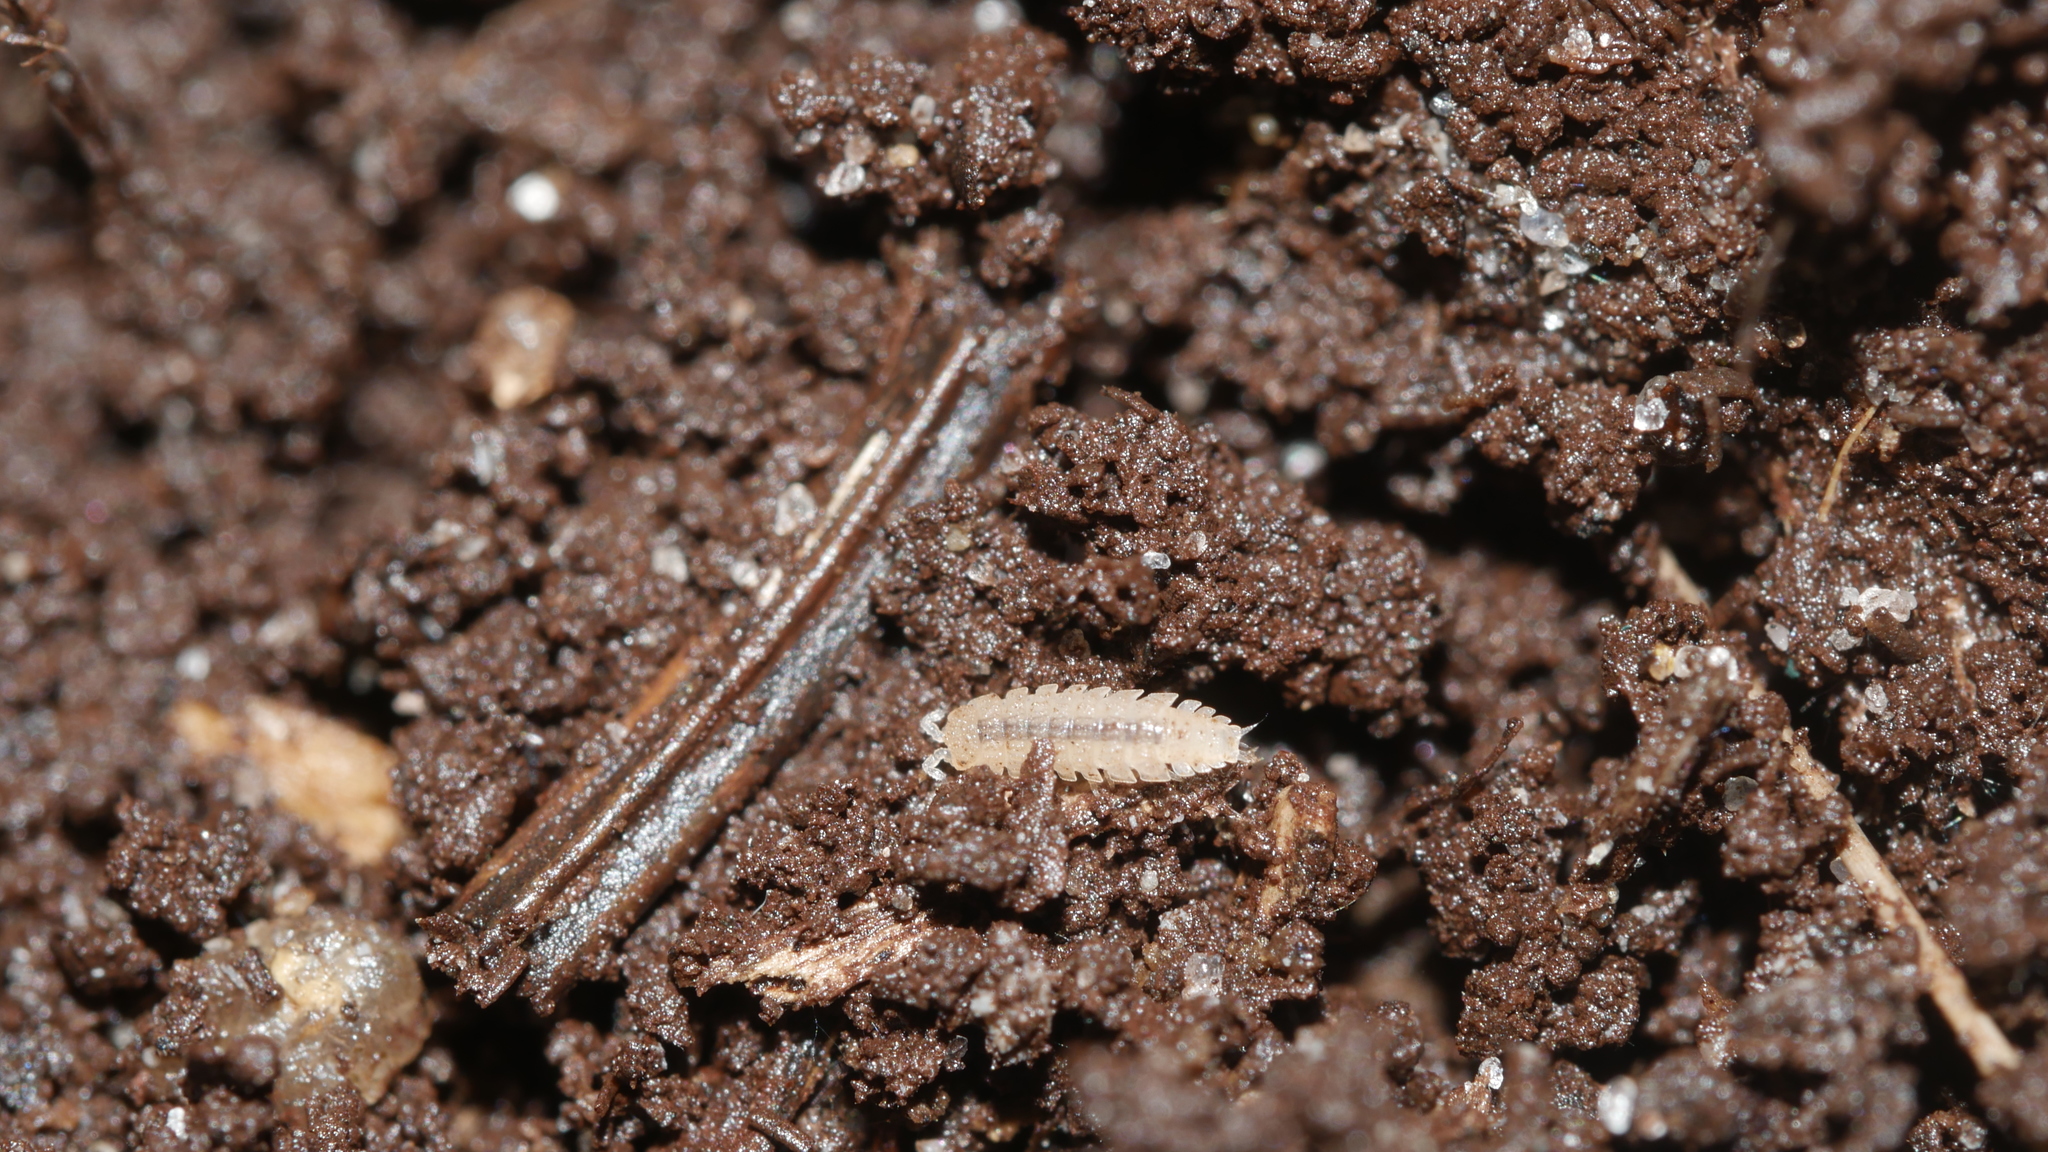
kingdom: Animalia
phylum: Arthropoda
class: Malacostraca
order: Isopoda
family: Trichoniscidae
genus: Haplophthalmus
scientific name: Haplophthalmus danicus
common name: Pillbug
